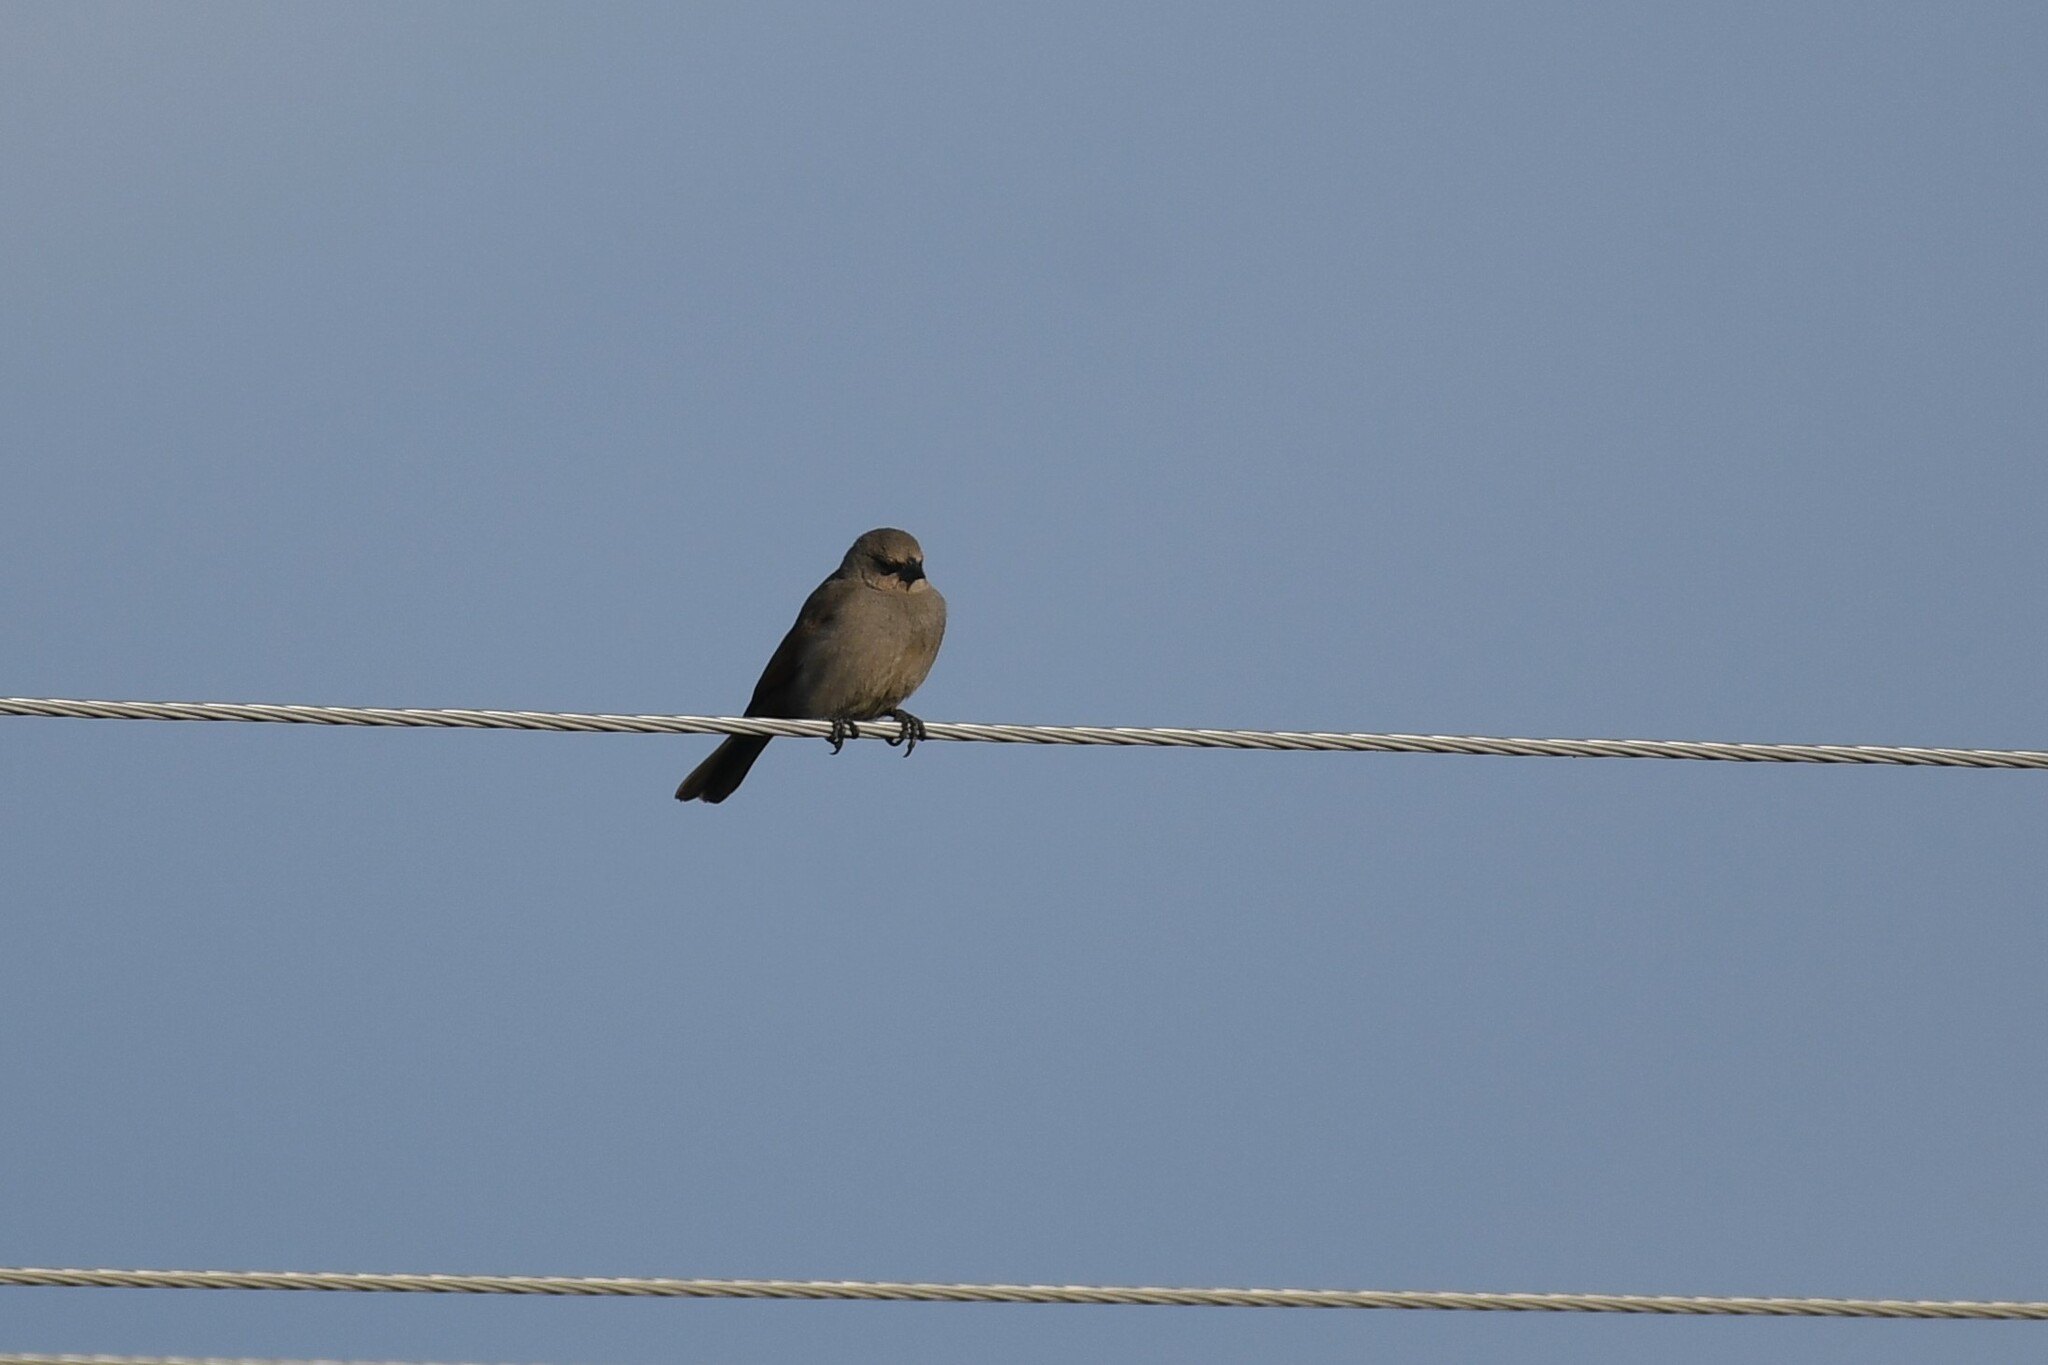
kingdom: Animalia
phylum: Chordata
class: Aves
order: Passeriformes
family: Icteridae
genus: Agelaioides
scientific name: Agelaioides badius
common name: Baywing
